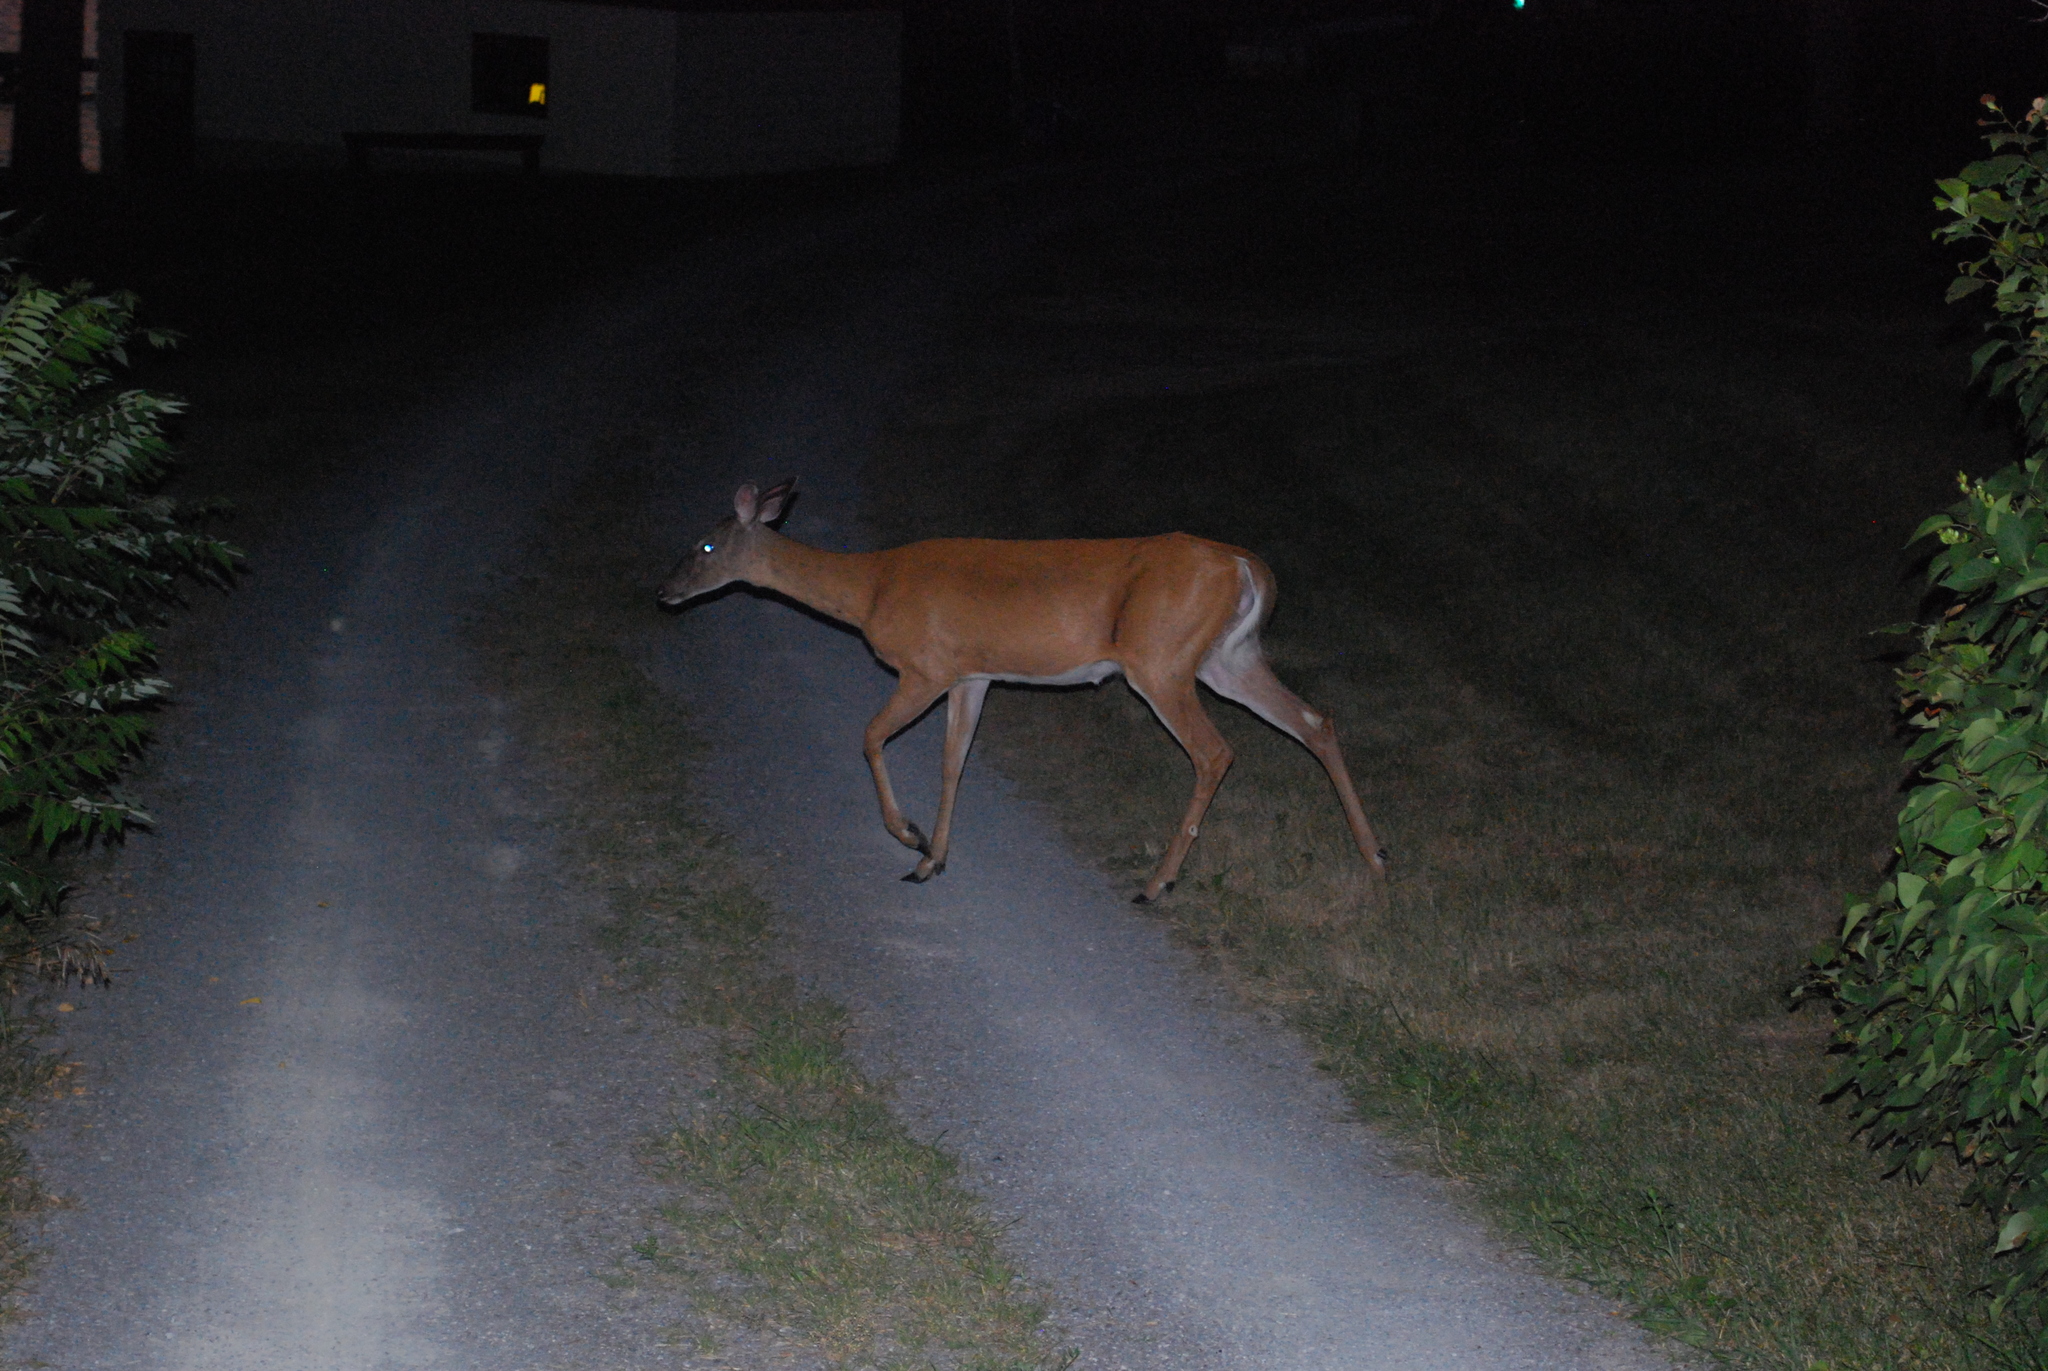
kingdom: Animalia
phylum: Chordata
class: Mammalia
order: Artiodactyla
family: Cervidae
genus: Odocoileus
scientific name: Odocoileus virginianus
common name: White-tailed deer
